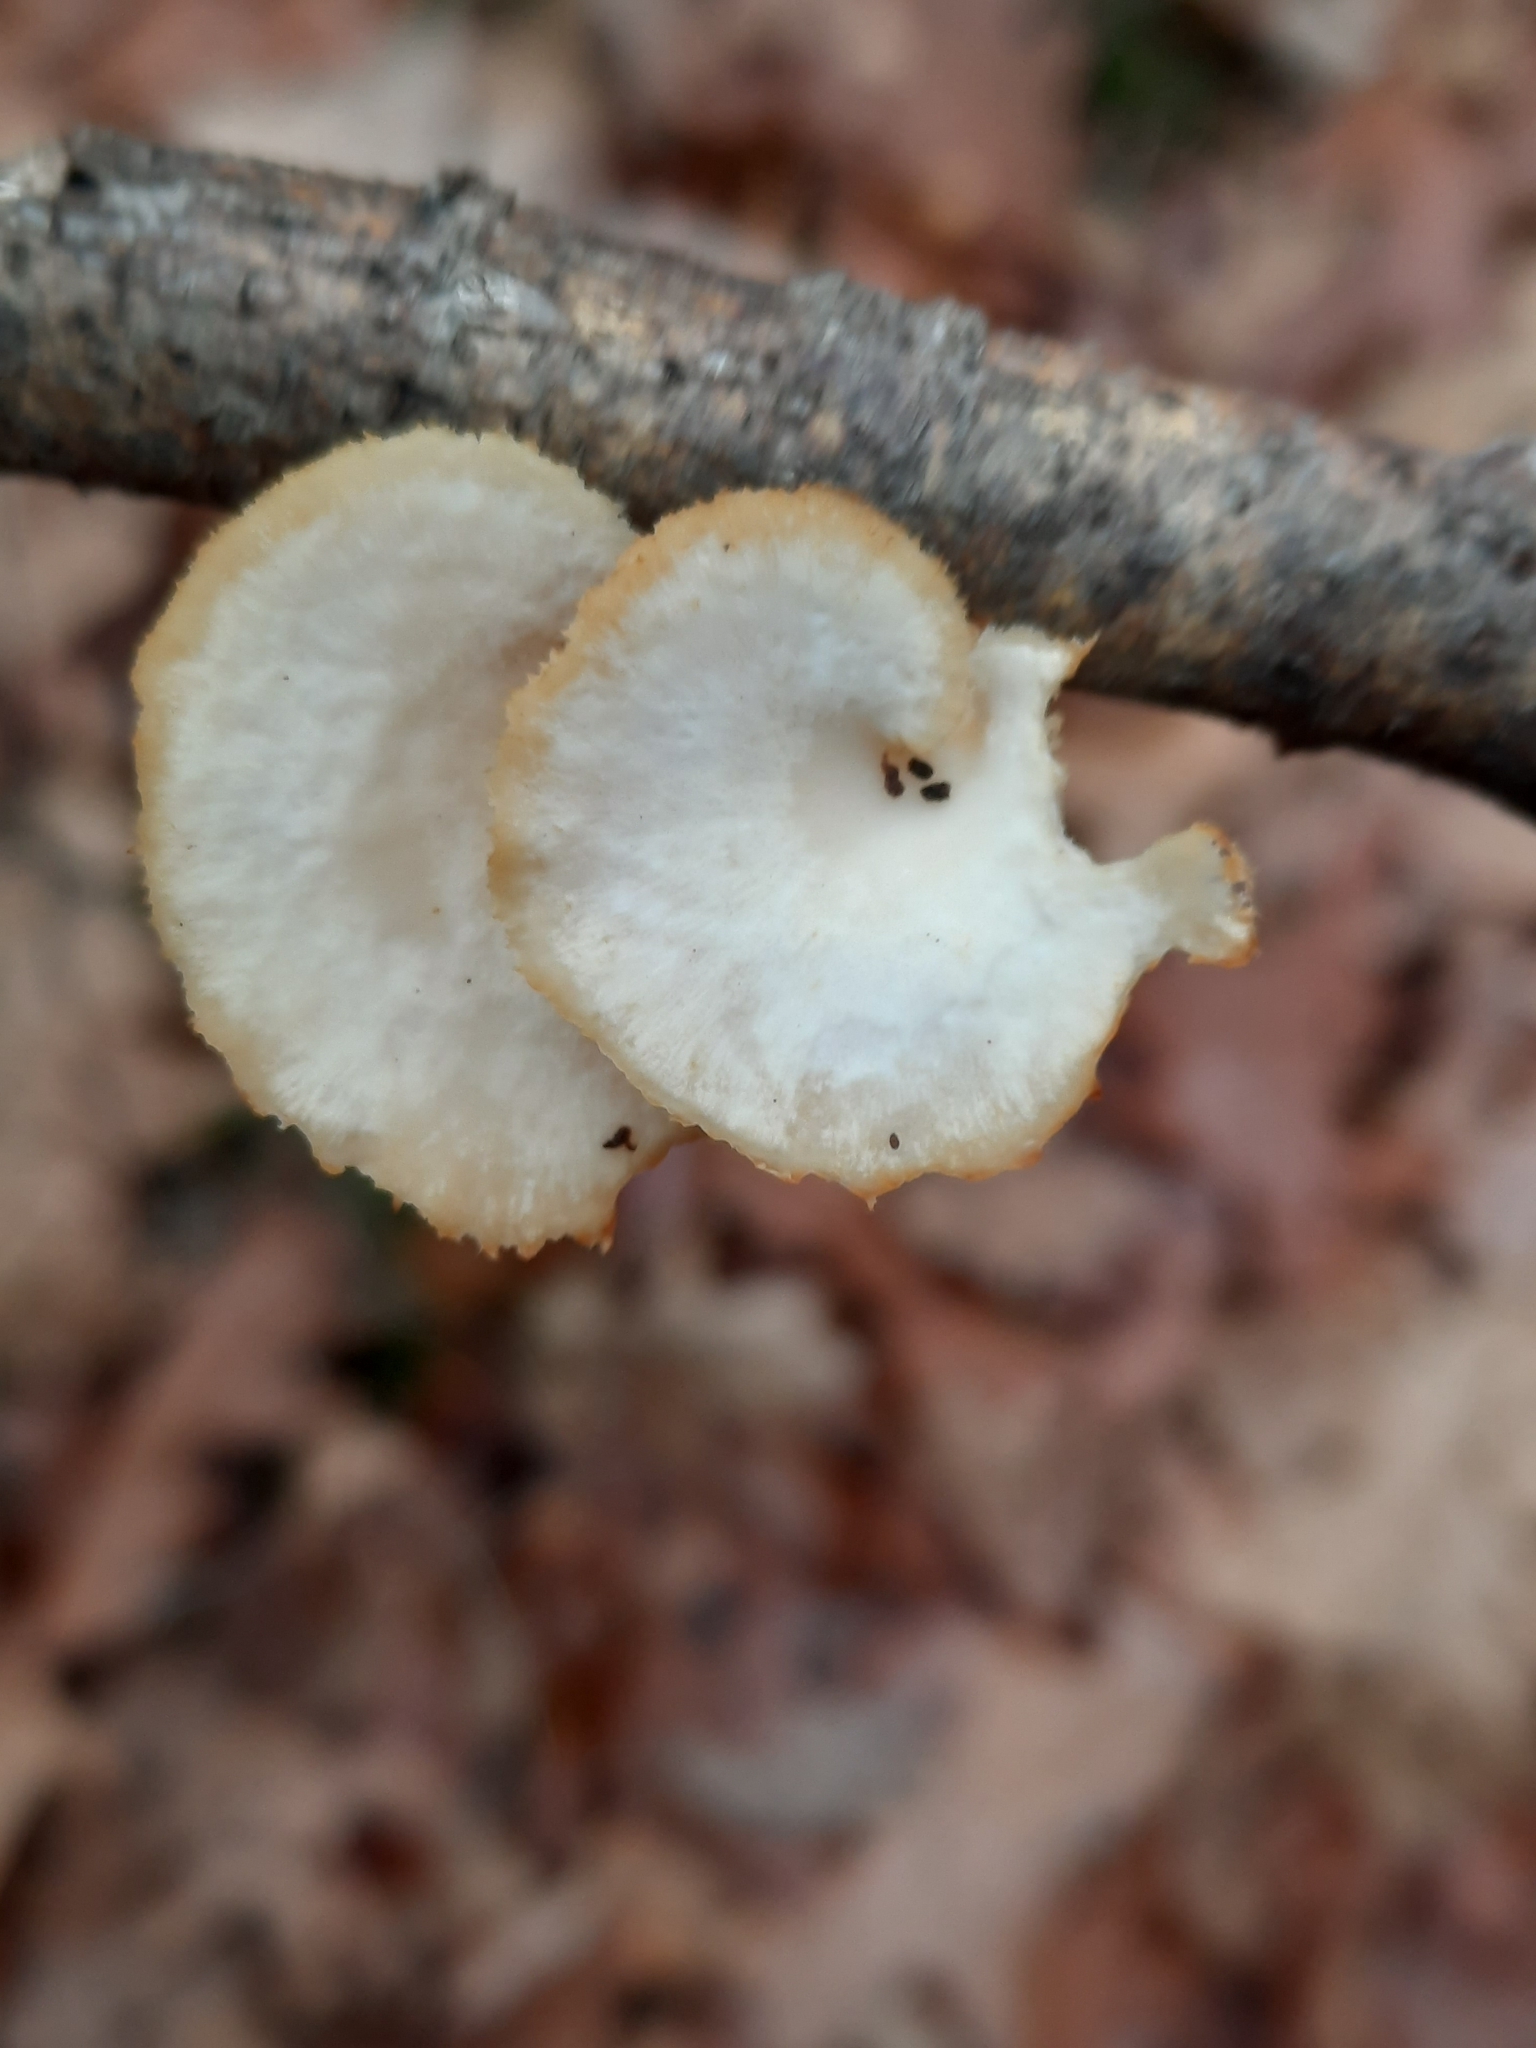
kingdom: Fungi
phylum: Basidiomycota
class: Agaricomycetes
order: Polyporales
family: Polyporaceae
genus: Neofavolus
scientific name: Neofavolus alveolaris
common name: Hexagonal-pored polypore
